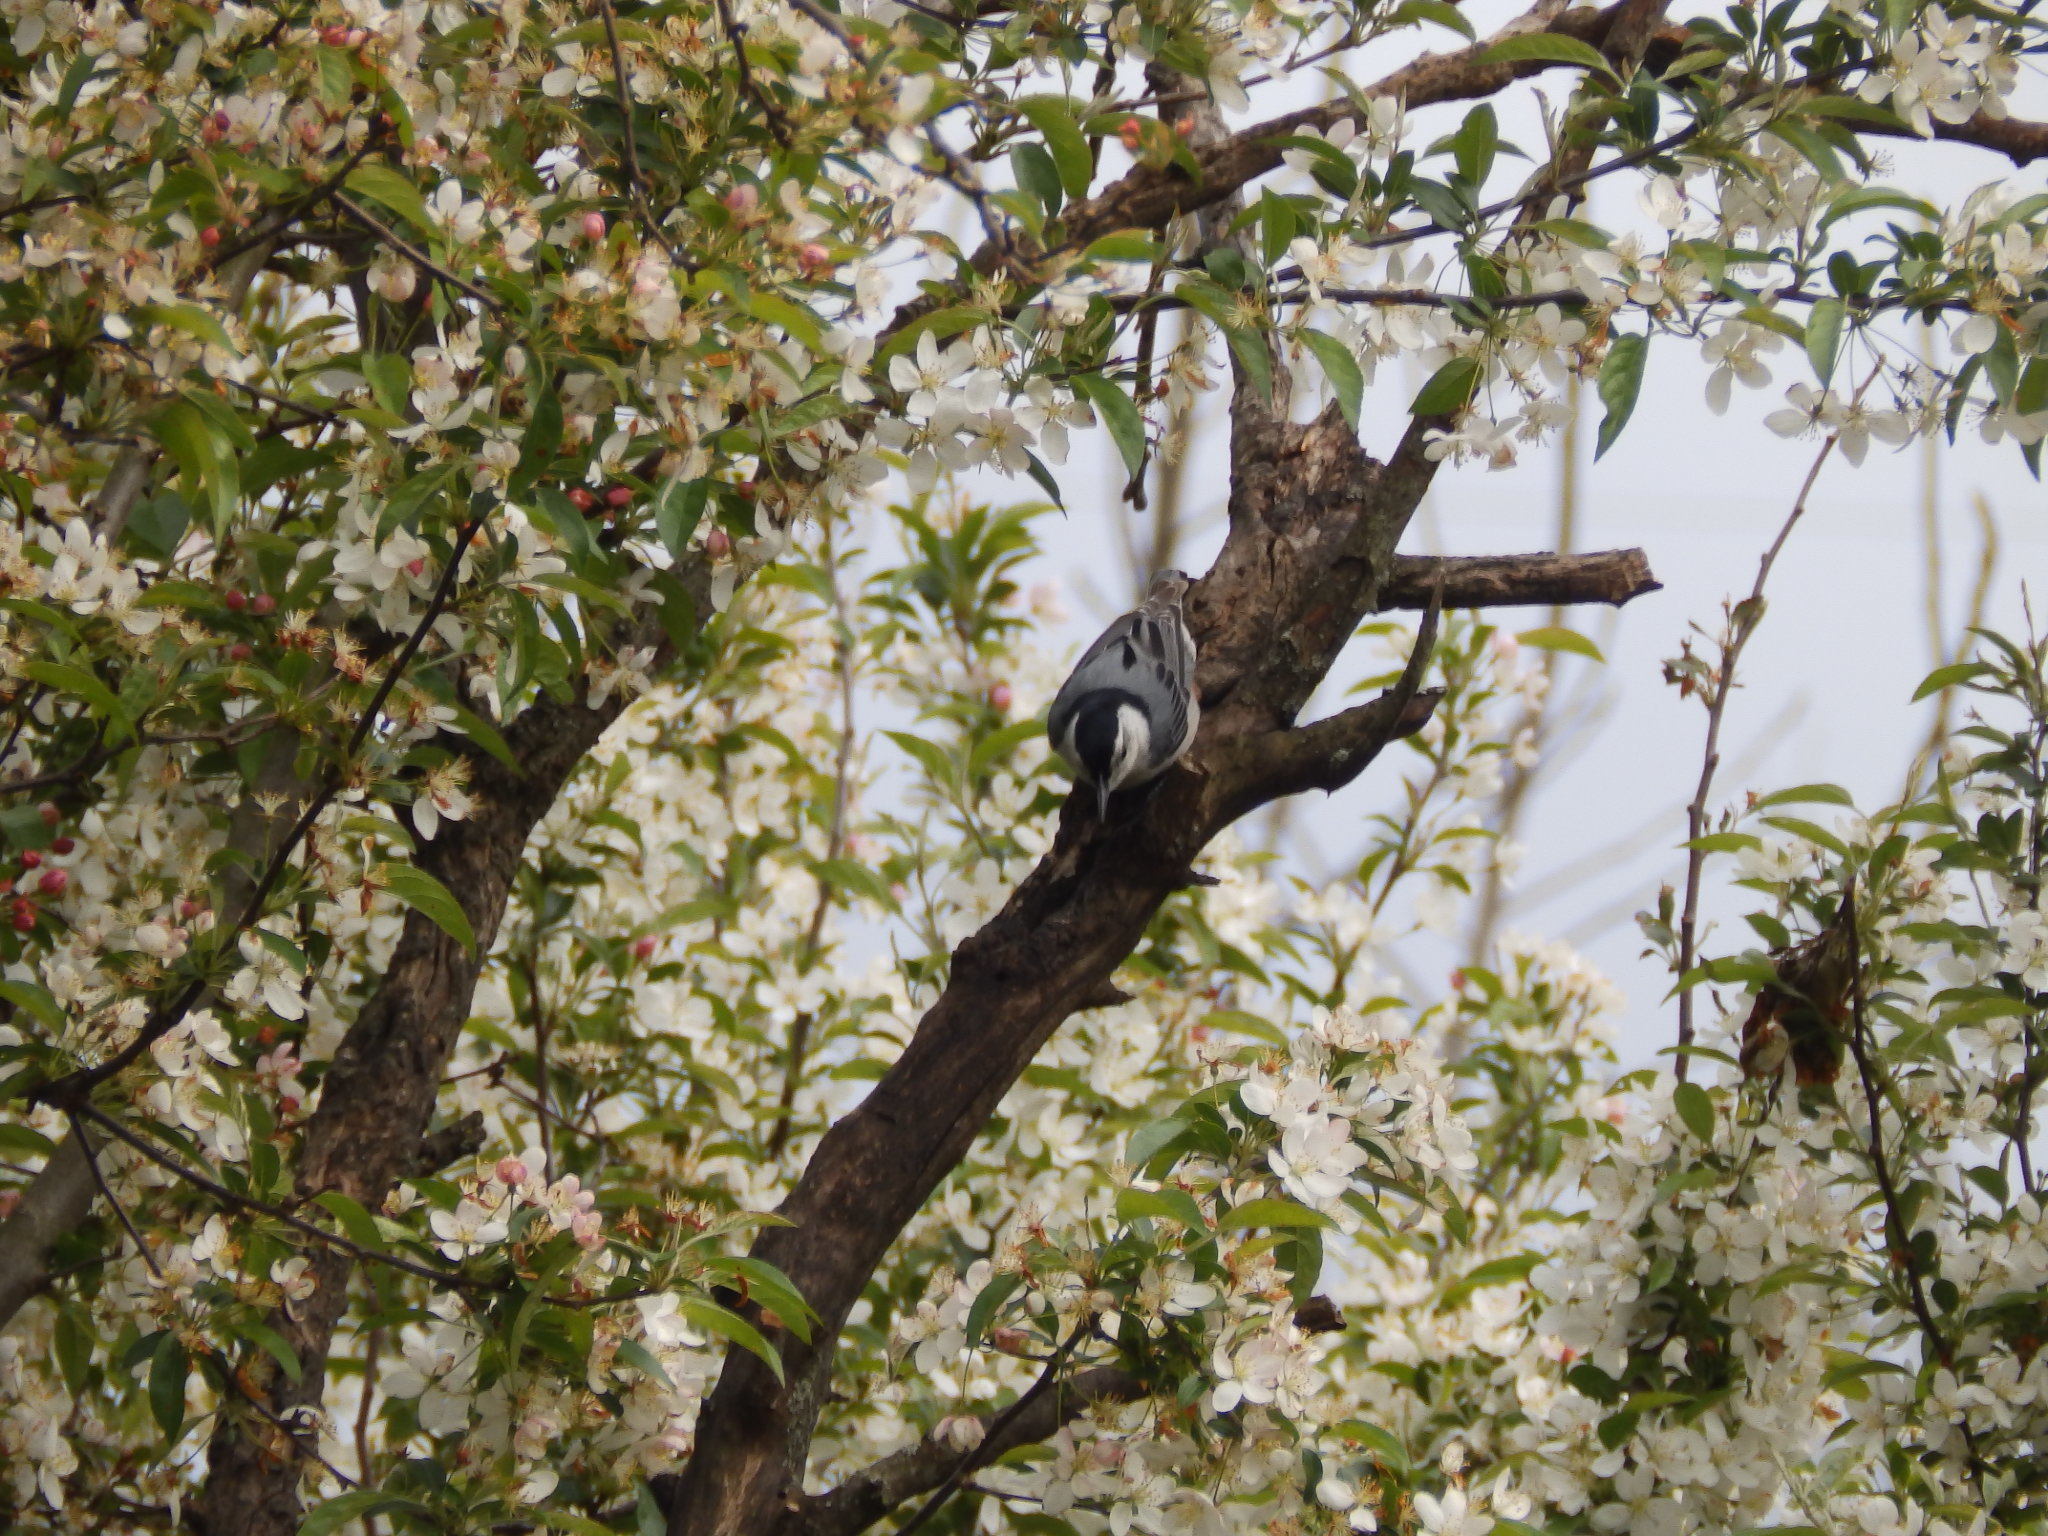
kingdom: Animalia
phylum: Chordata
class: Aves
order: Passeriformes
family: Sittidae
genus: Sitta
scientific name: Sitta carolinensis
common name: White-breasted nuthatch
